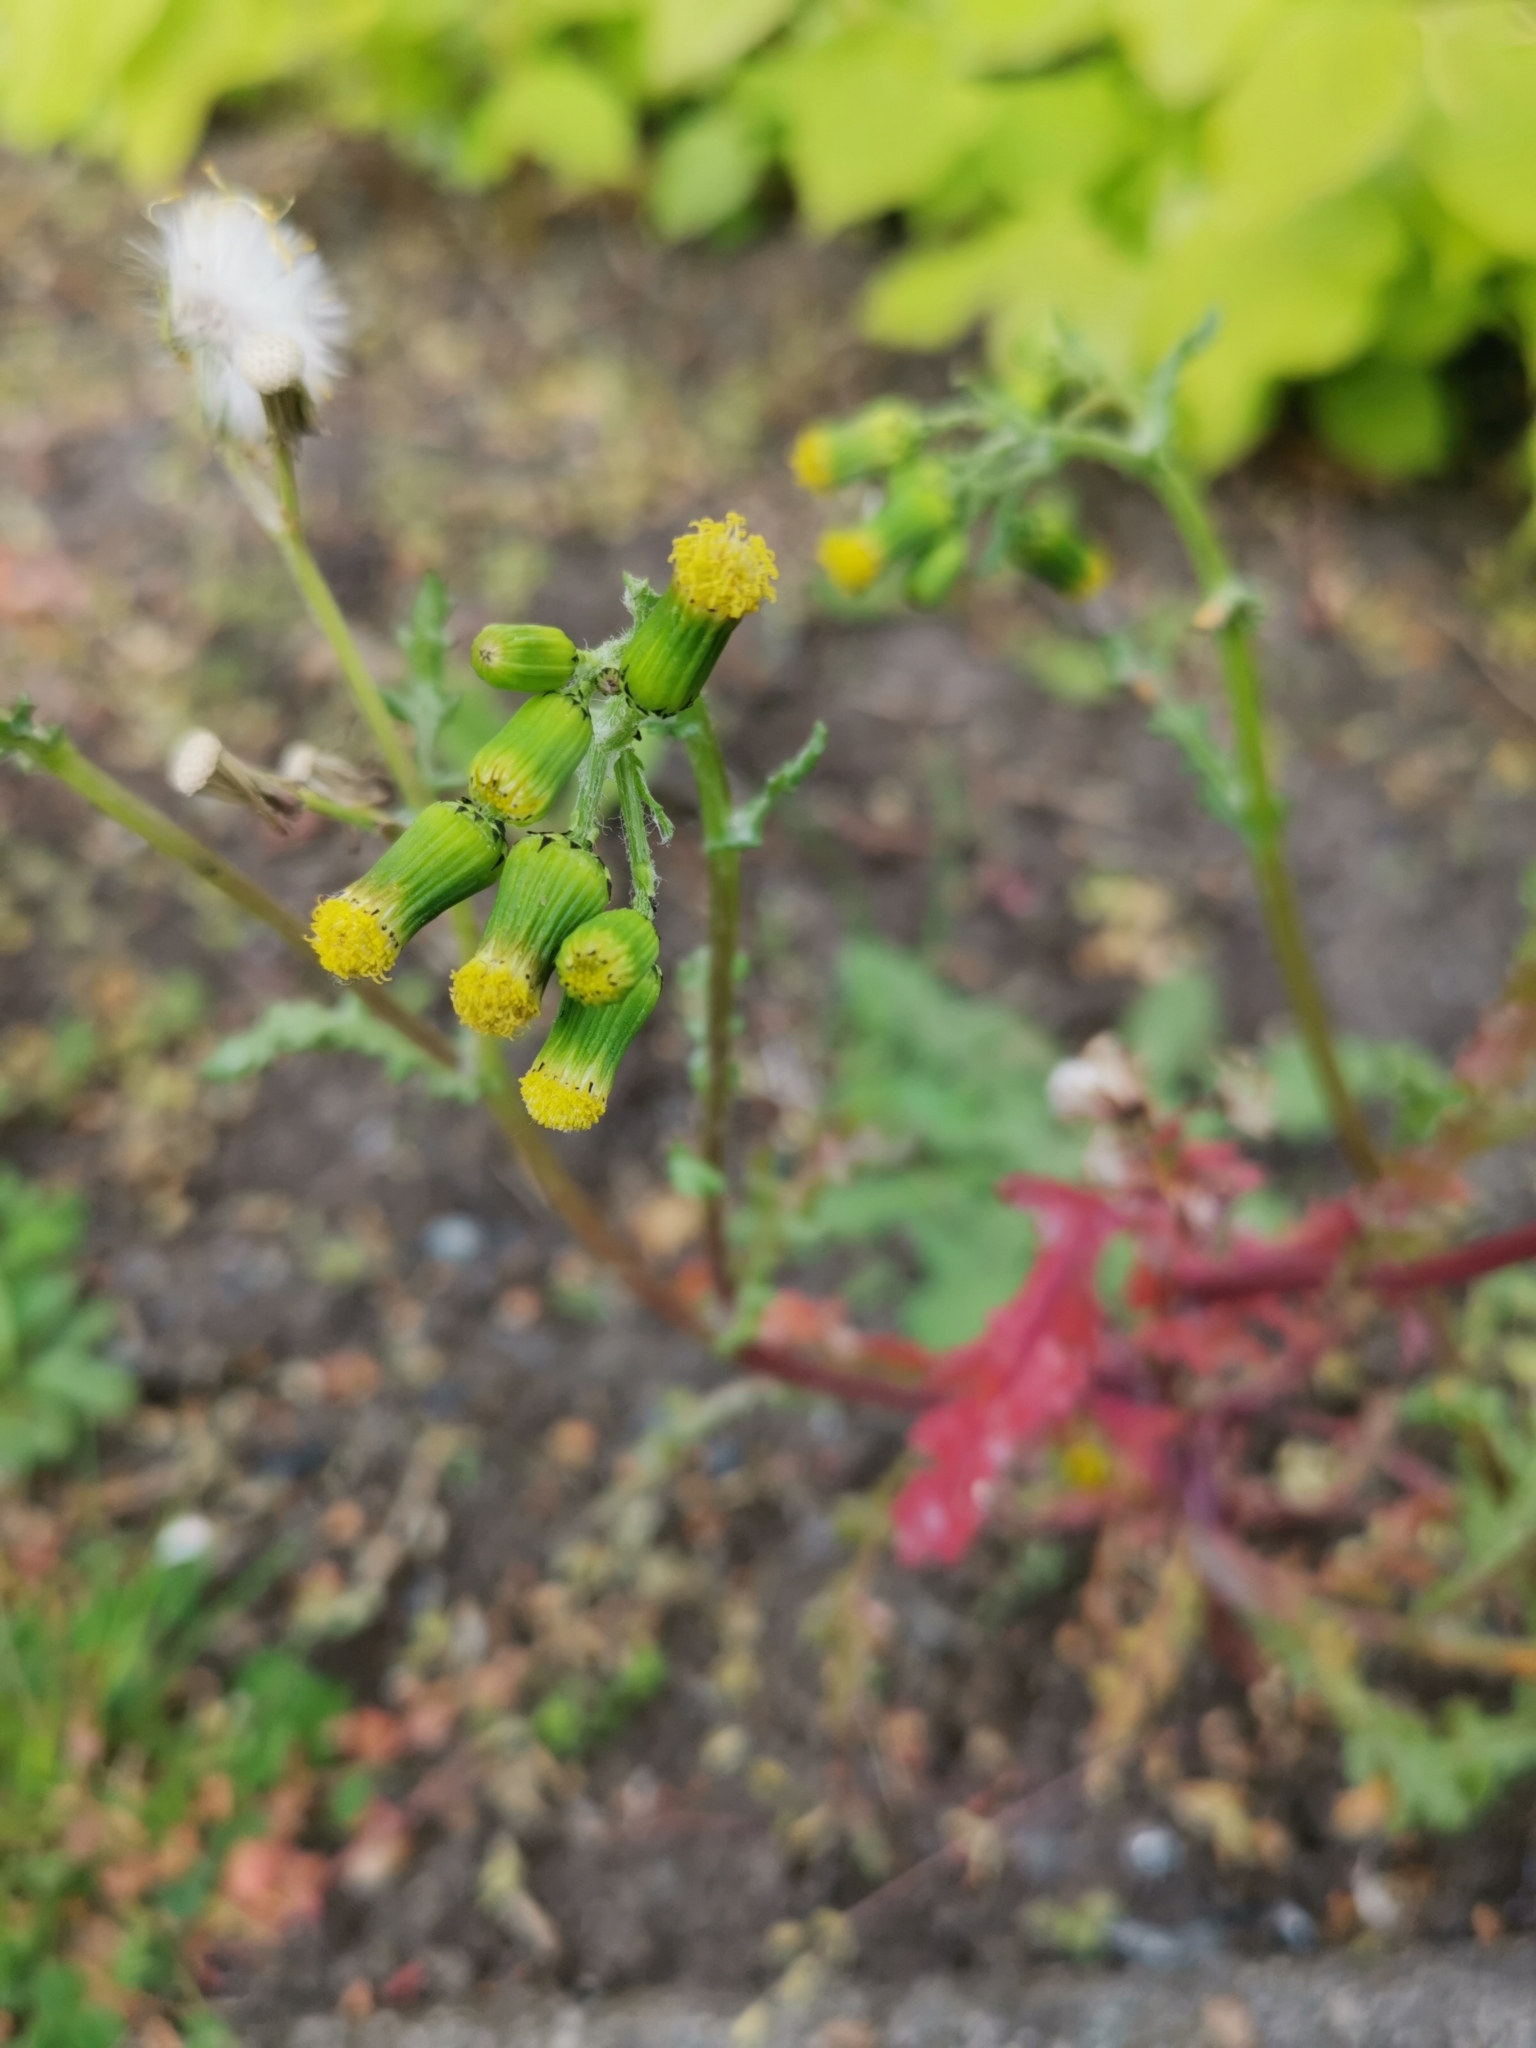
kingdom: Plantae
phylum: Tracheophyta
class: Magnoliopsida
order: Asterales
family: Asteraceae
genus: Senecio
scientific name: Senecio vulgaris
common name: Old-man-in-the-spring
